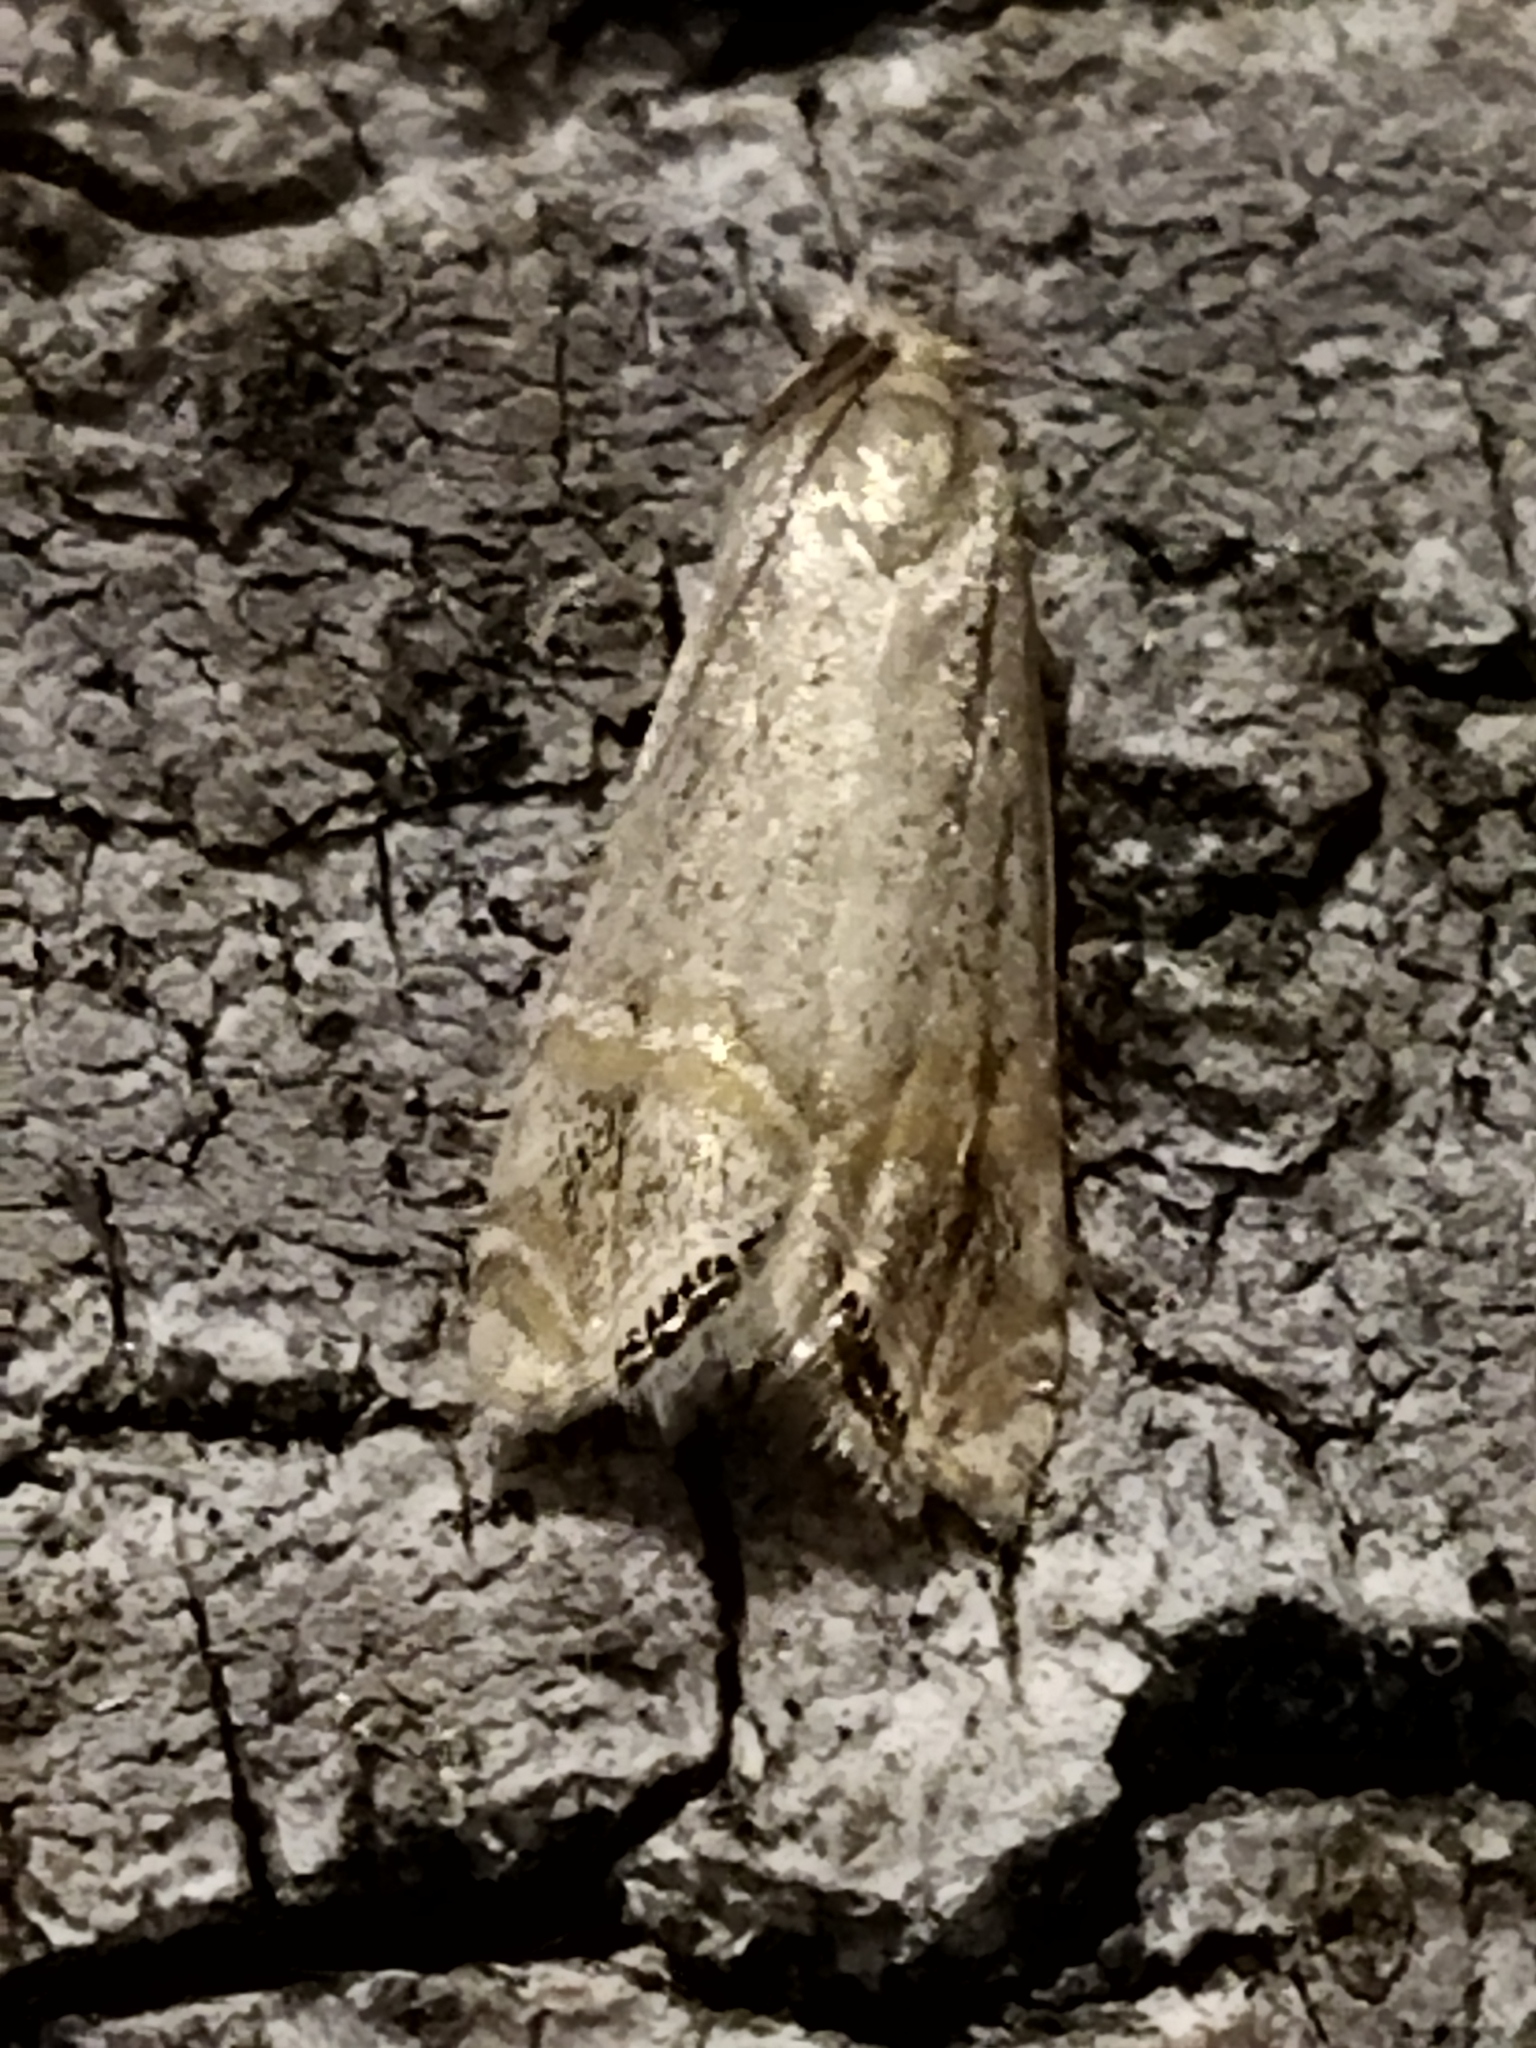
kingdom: Animalia
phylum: Arthropoda
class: Insecta
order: Lepidoptera
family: Crambidae
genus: Euchromius
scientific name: Euchromius ocellea
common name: Necklace veneer moth
